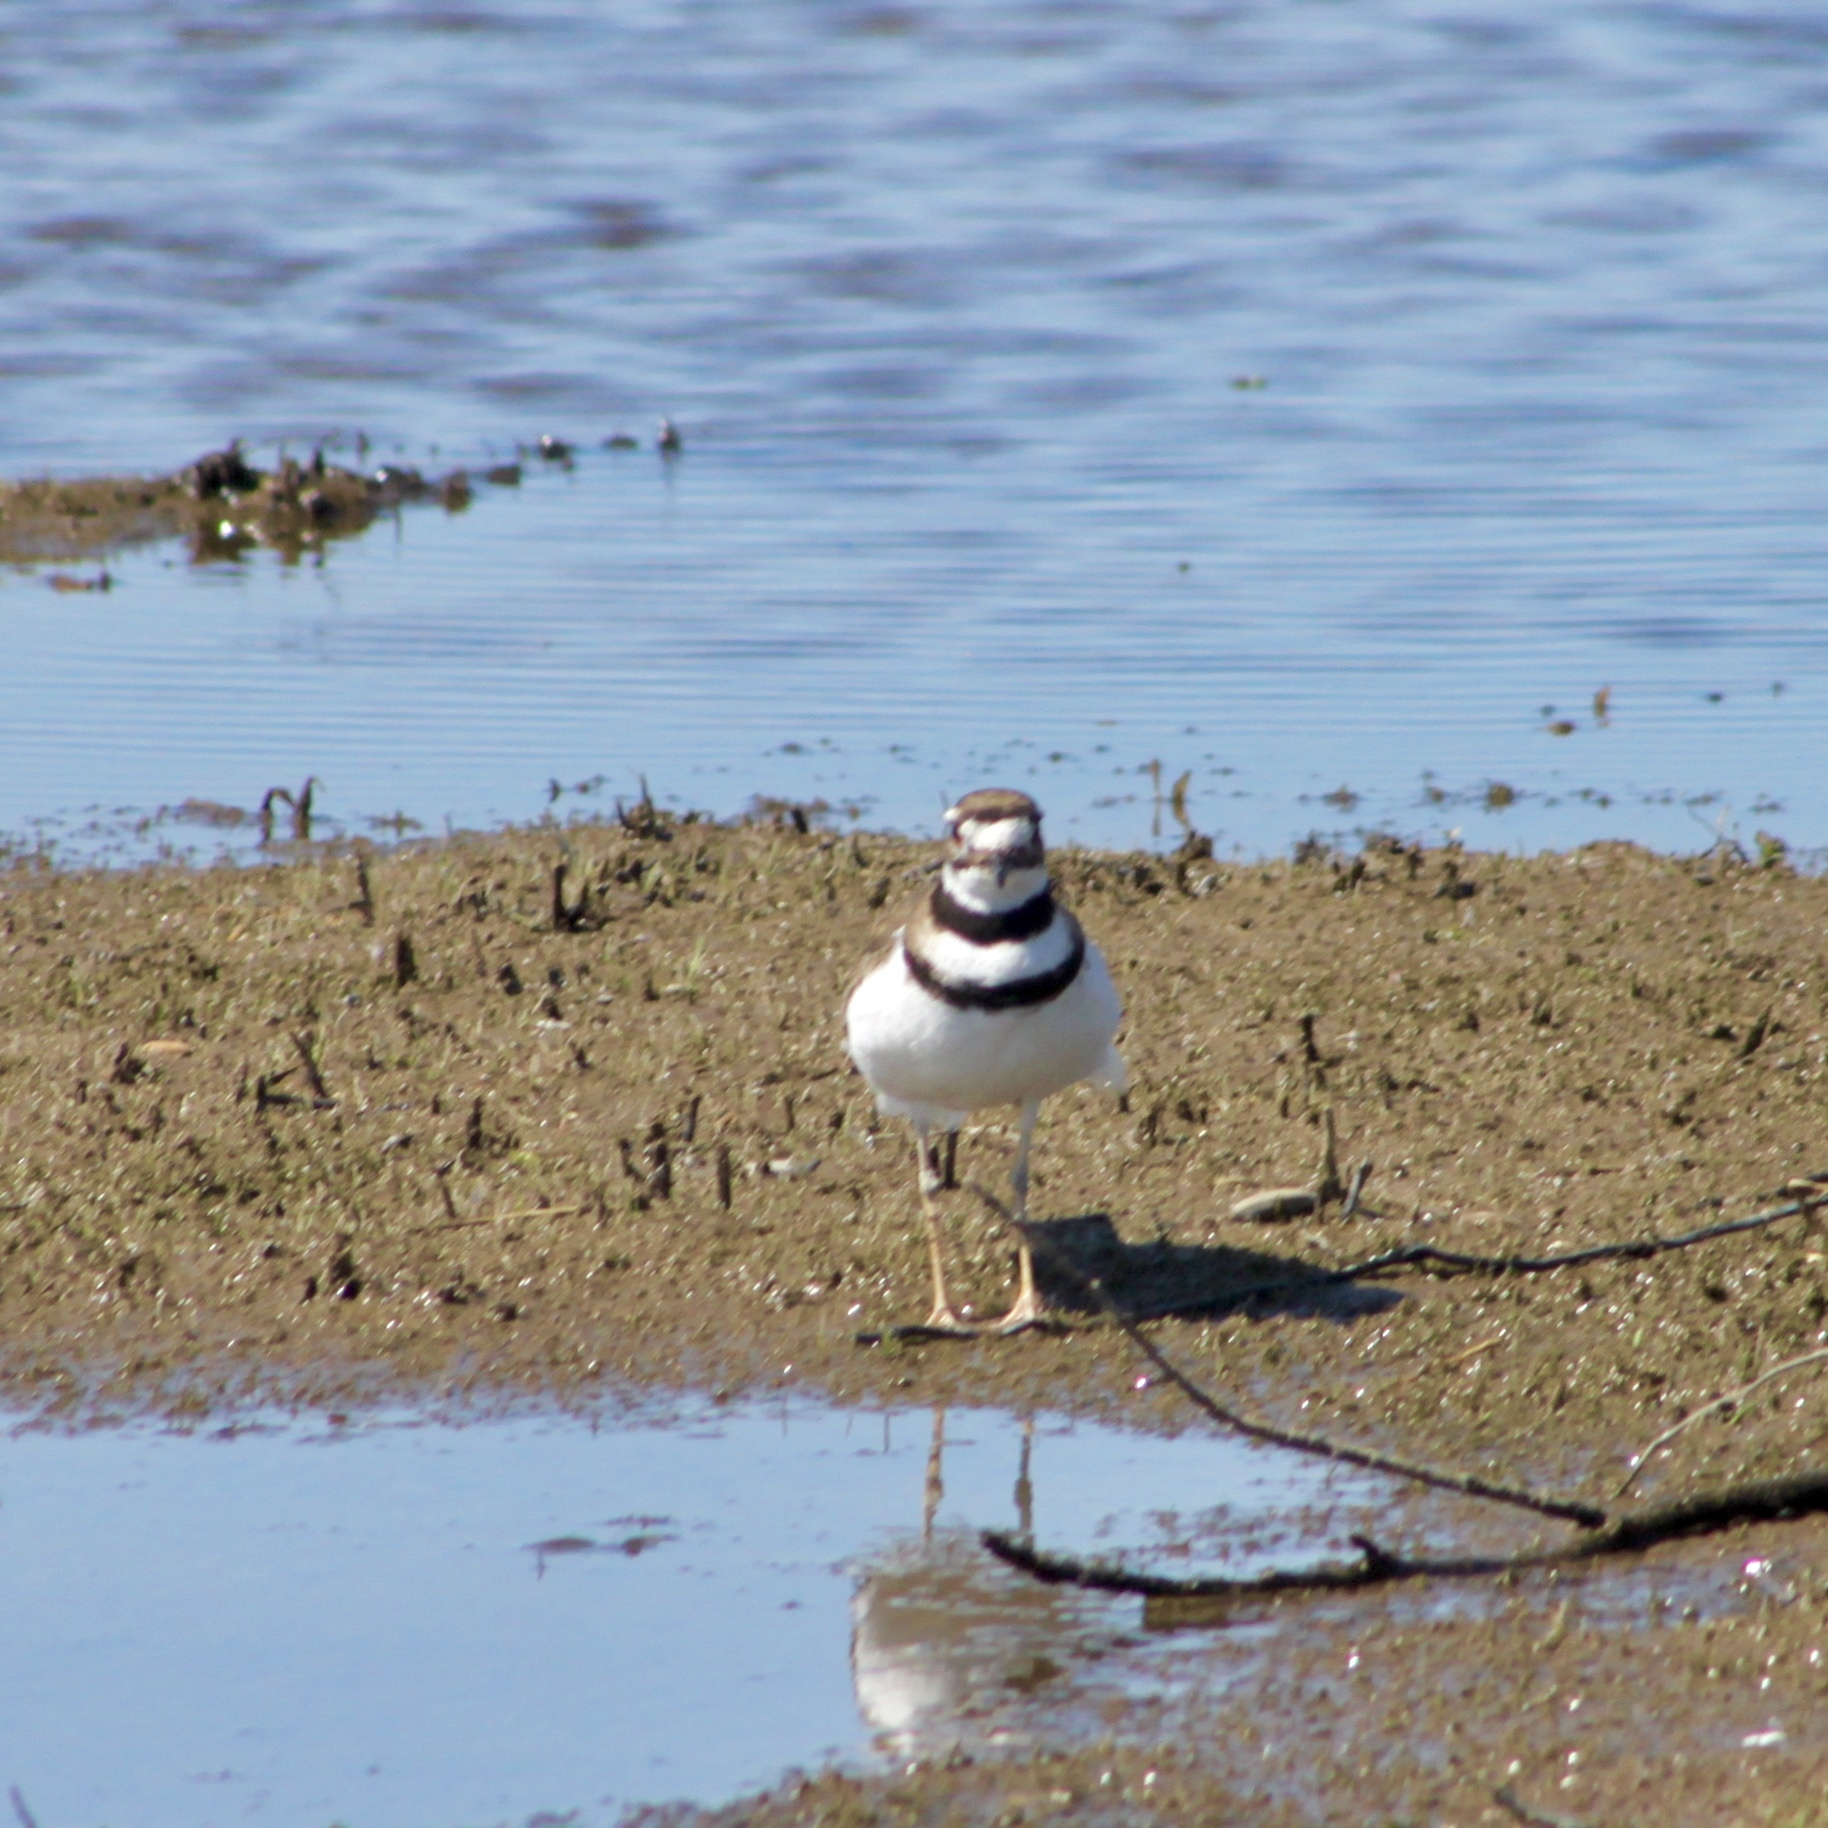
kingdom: Animalia
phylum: Chordata
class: Aves
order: Charadriiformes
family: Charadriidae
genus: Charadrius
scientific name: Charadrius vociferus
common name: Killdeer
